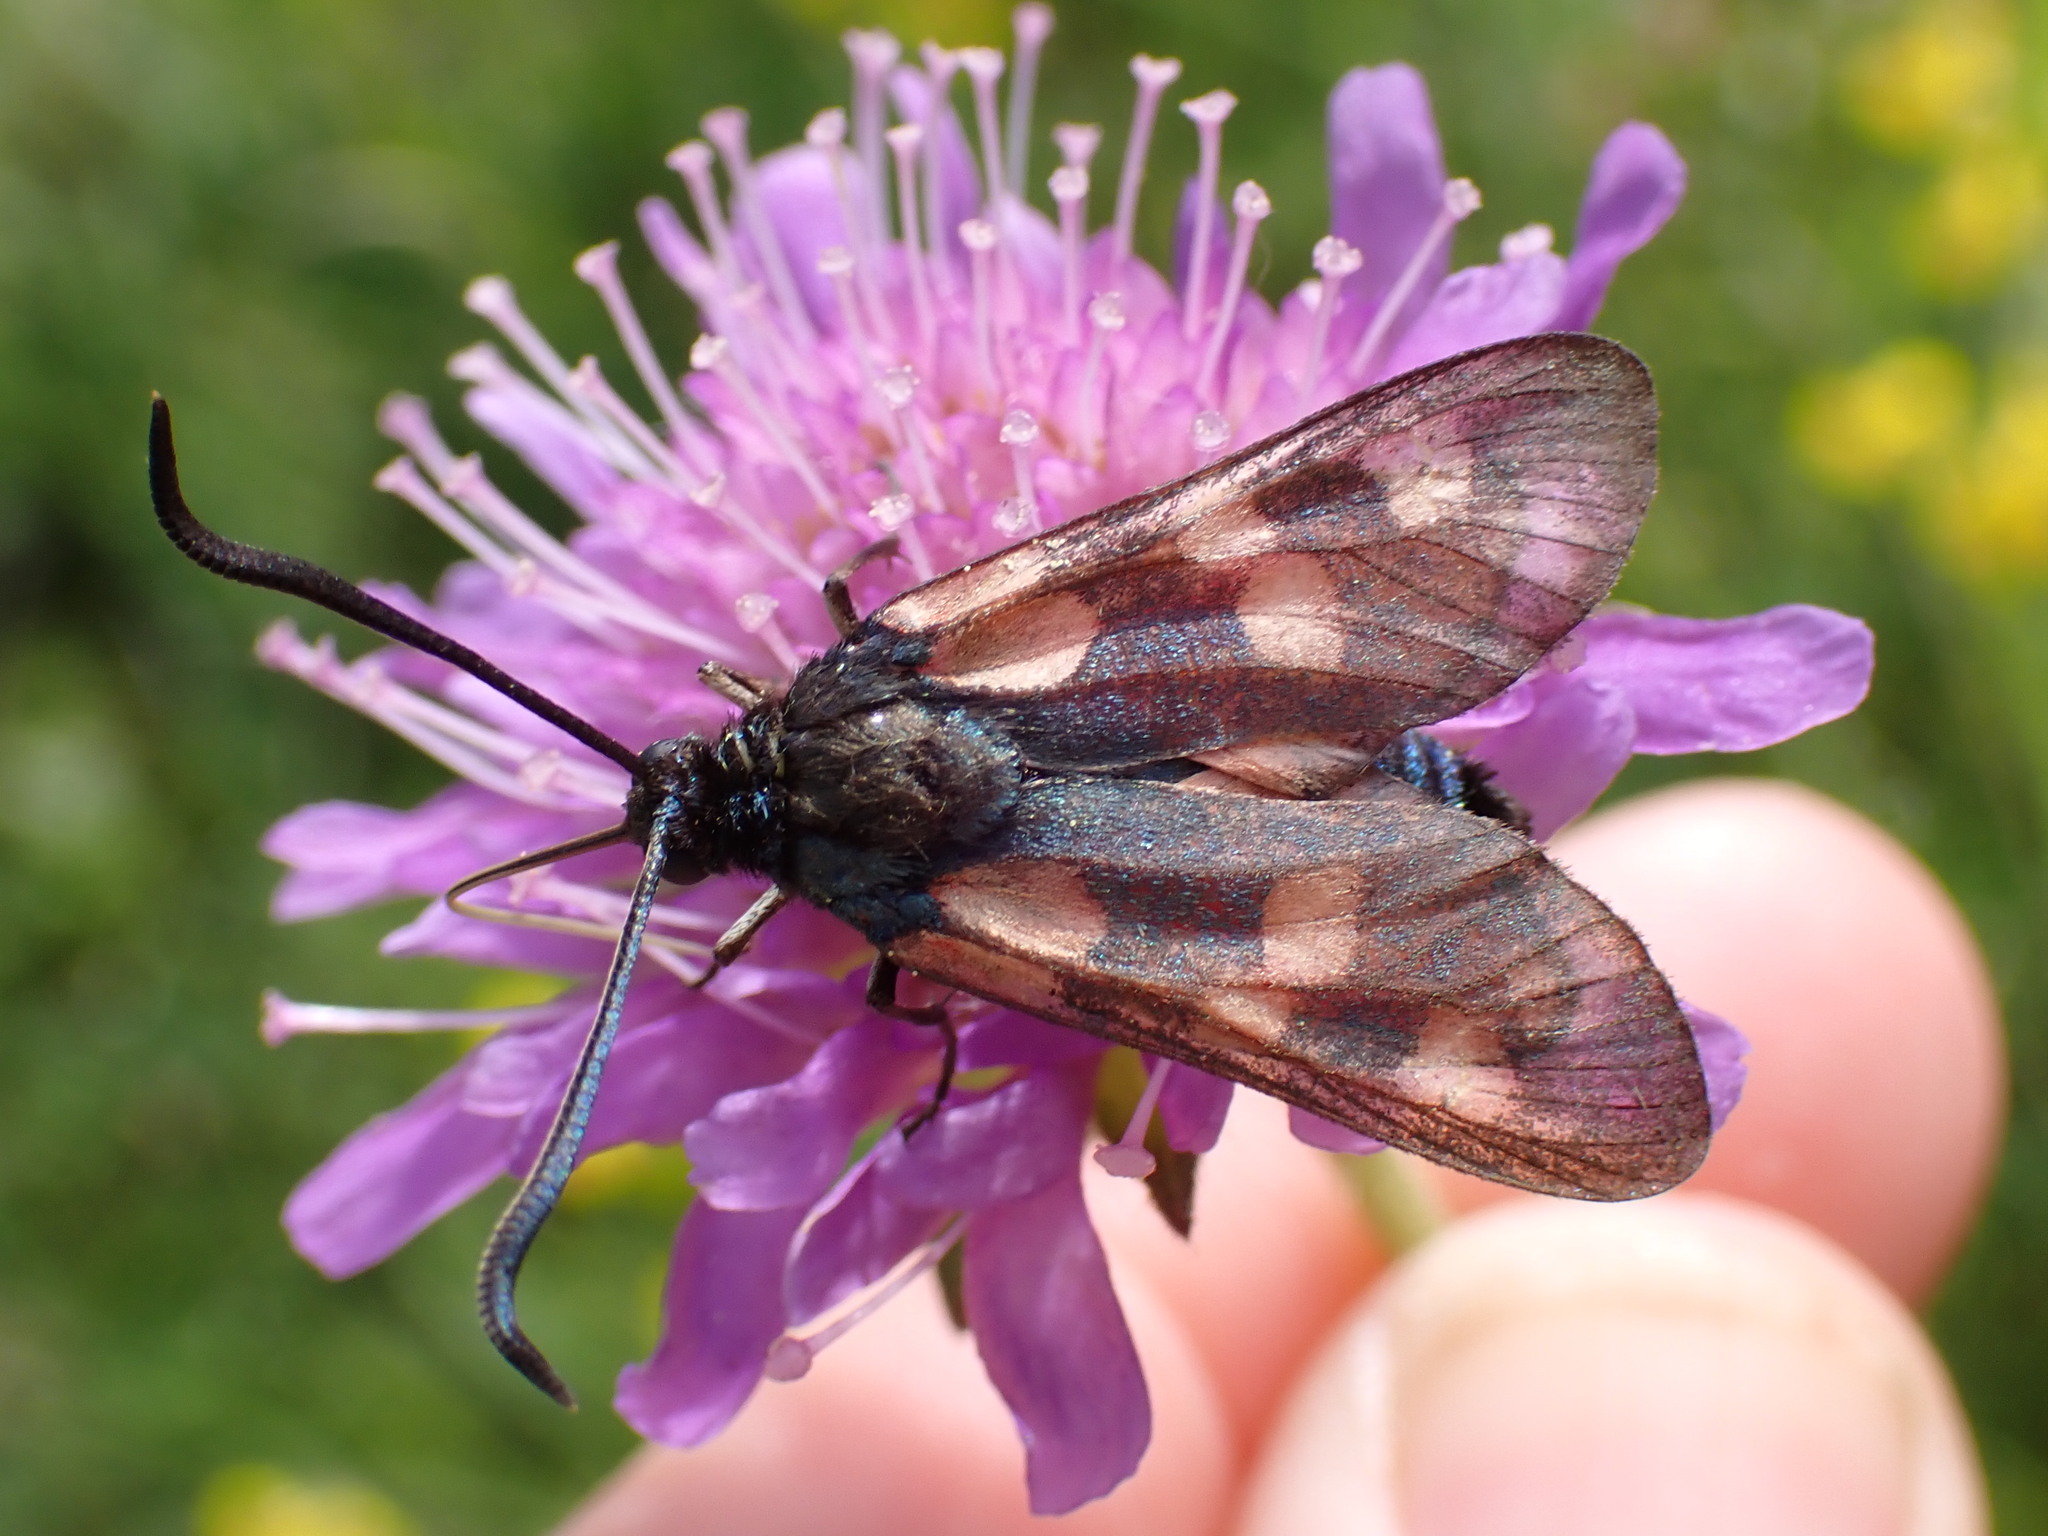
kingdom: Animalia
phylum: Arthropoda
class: Insecta
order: Lepidoptera
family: Zygaenidae
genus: Zygaena
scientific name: Zygaena filipendulae
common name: Six-spot burnet
